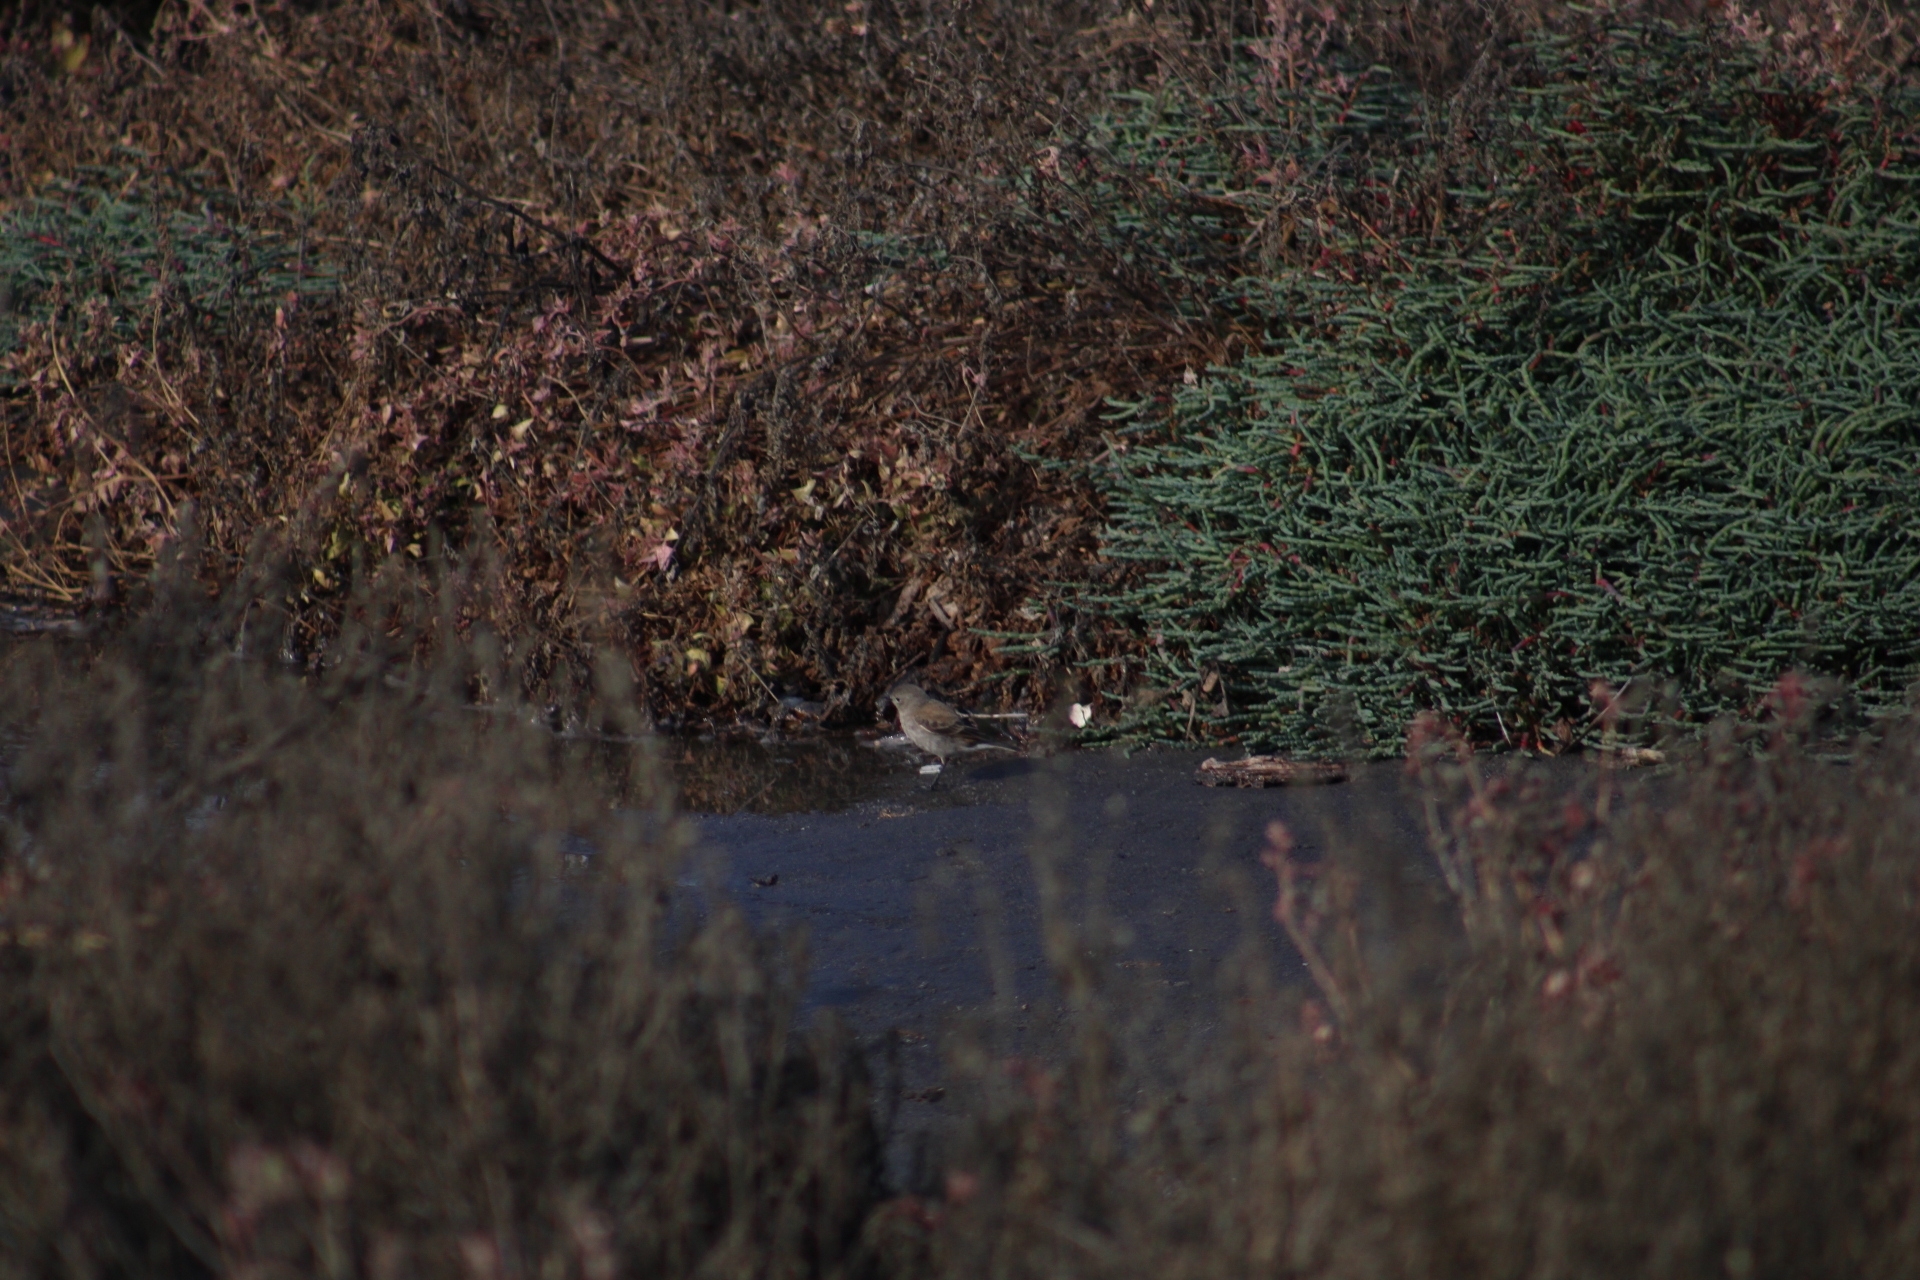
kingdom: Animalia
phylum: Chordata
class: Aves
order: Passeriformes
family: Tyrannidae
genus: Lessonia
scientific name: Lessonia rufa
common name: Austral negrito
